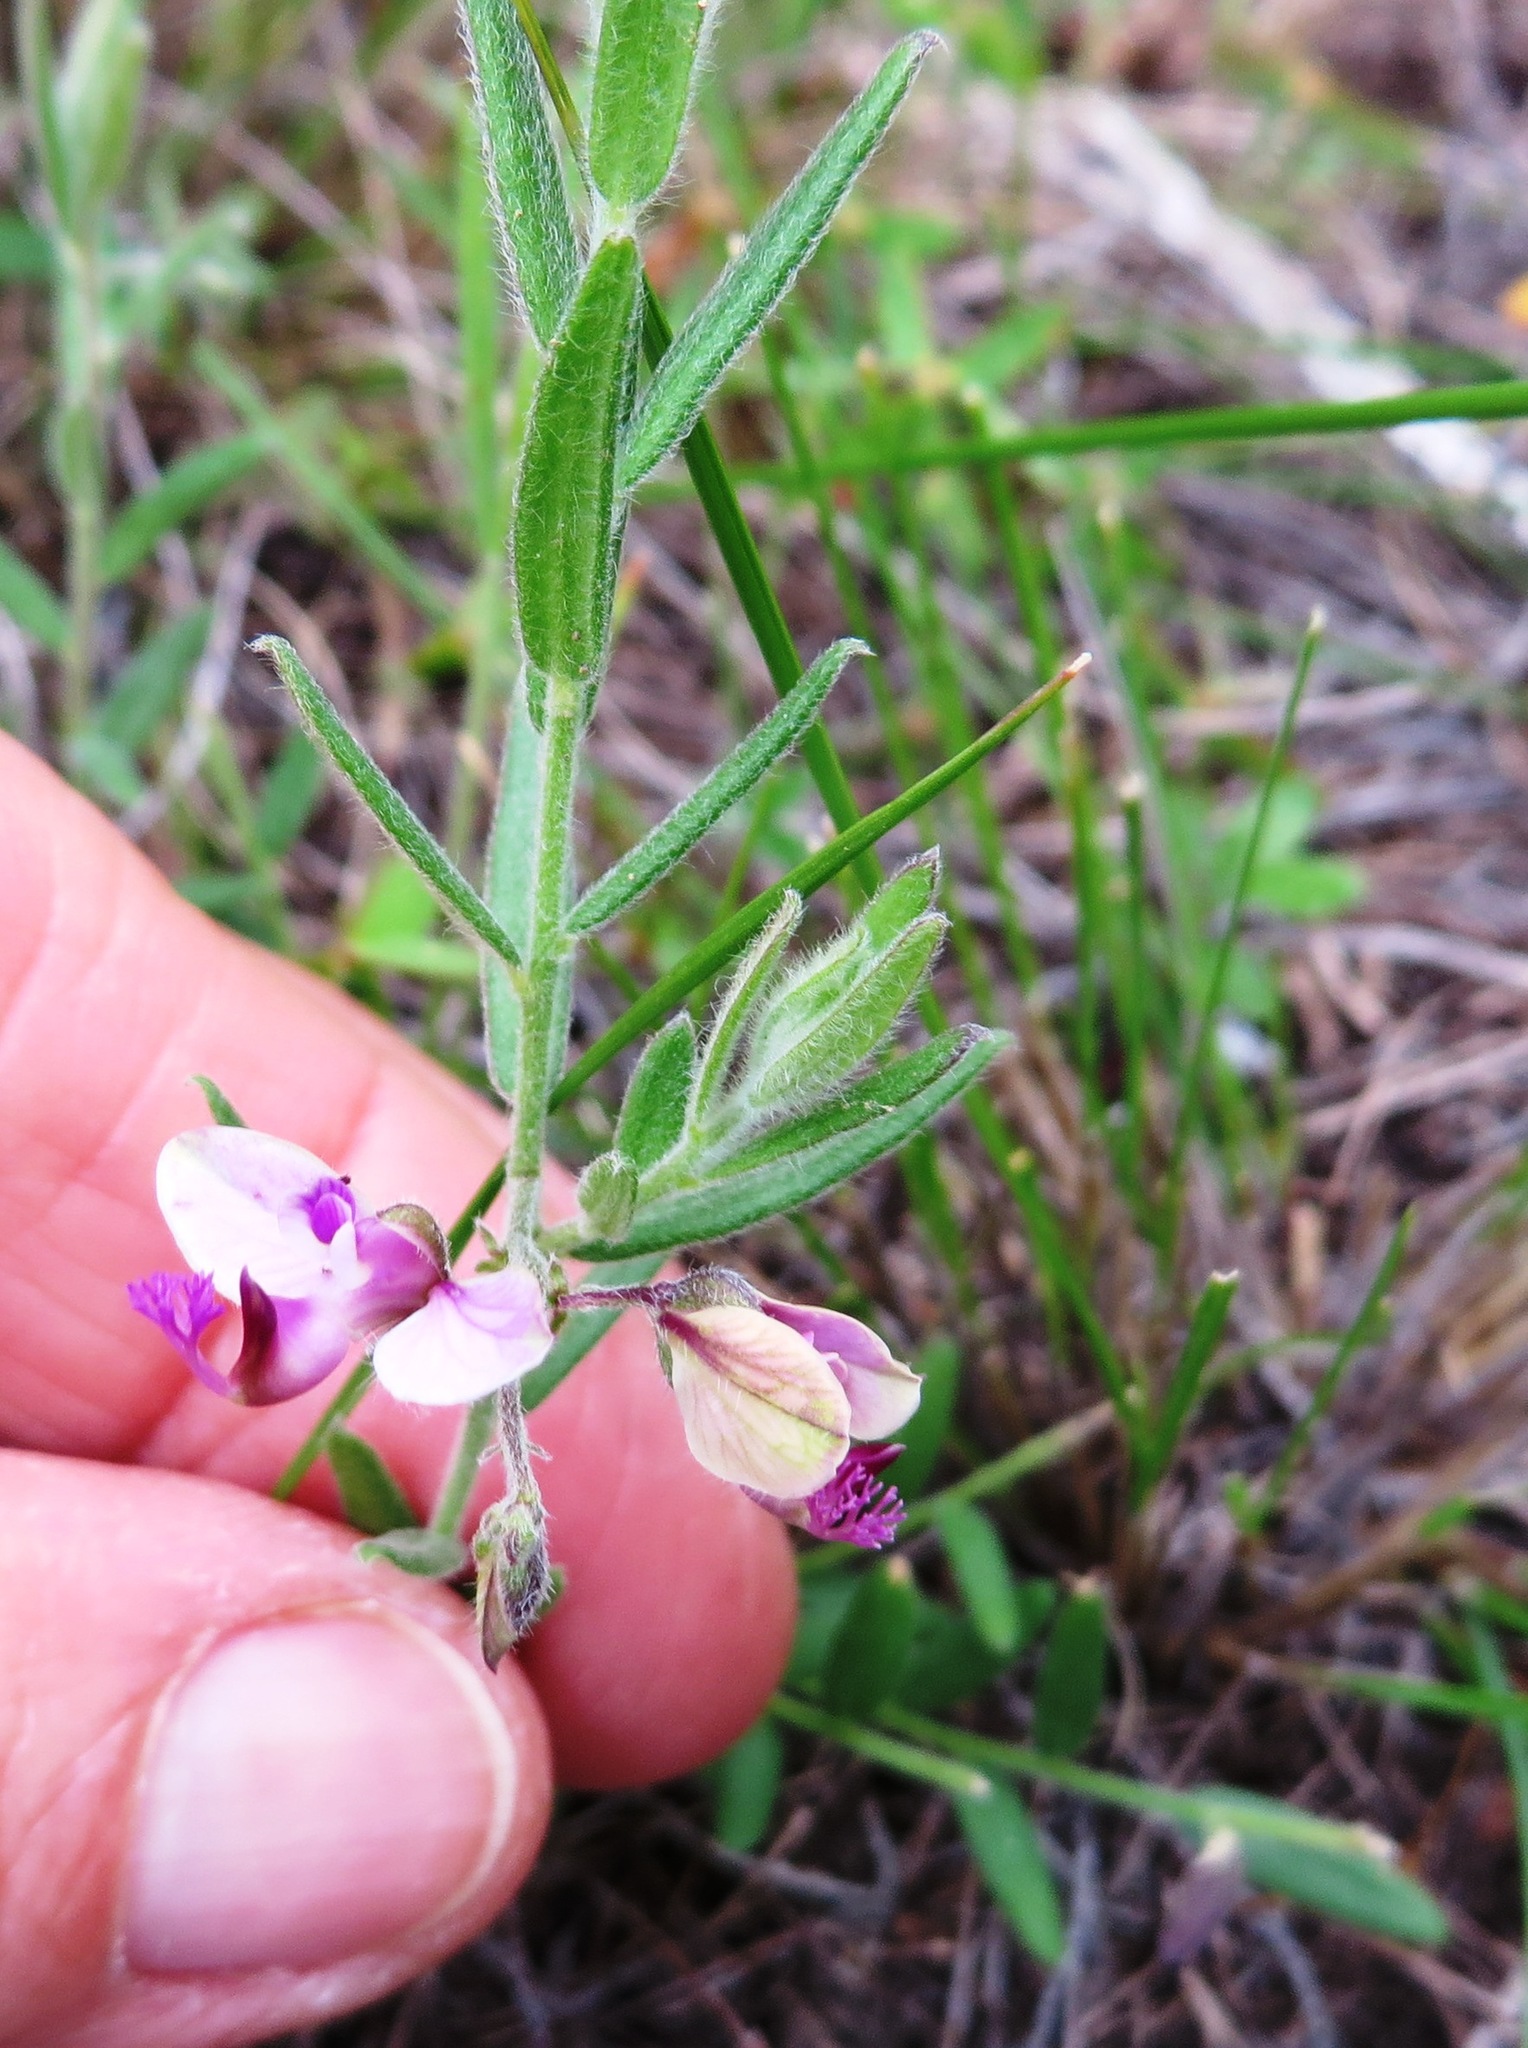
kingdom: Plantae
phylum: Tracheophyta
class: Magnoliopsida
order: Fabales
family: Polygalaceae
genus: Polygala
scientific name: Polygala scabra
